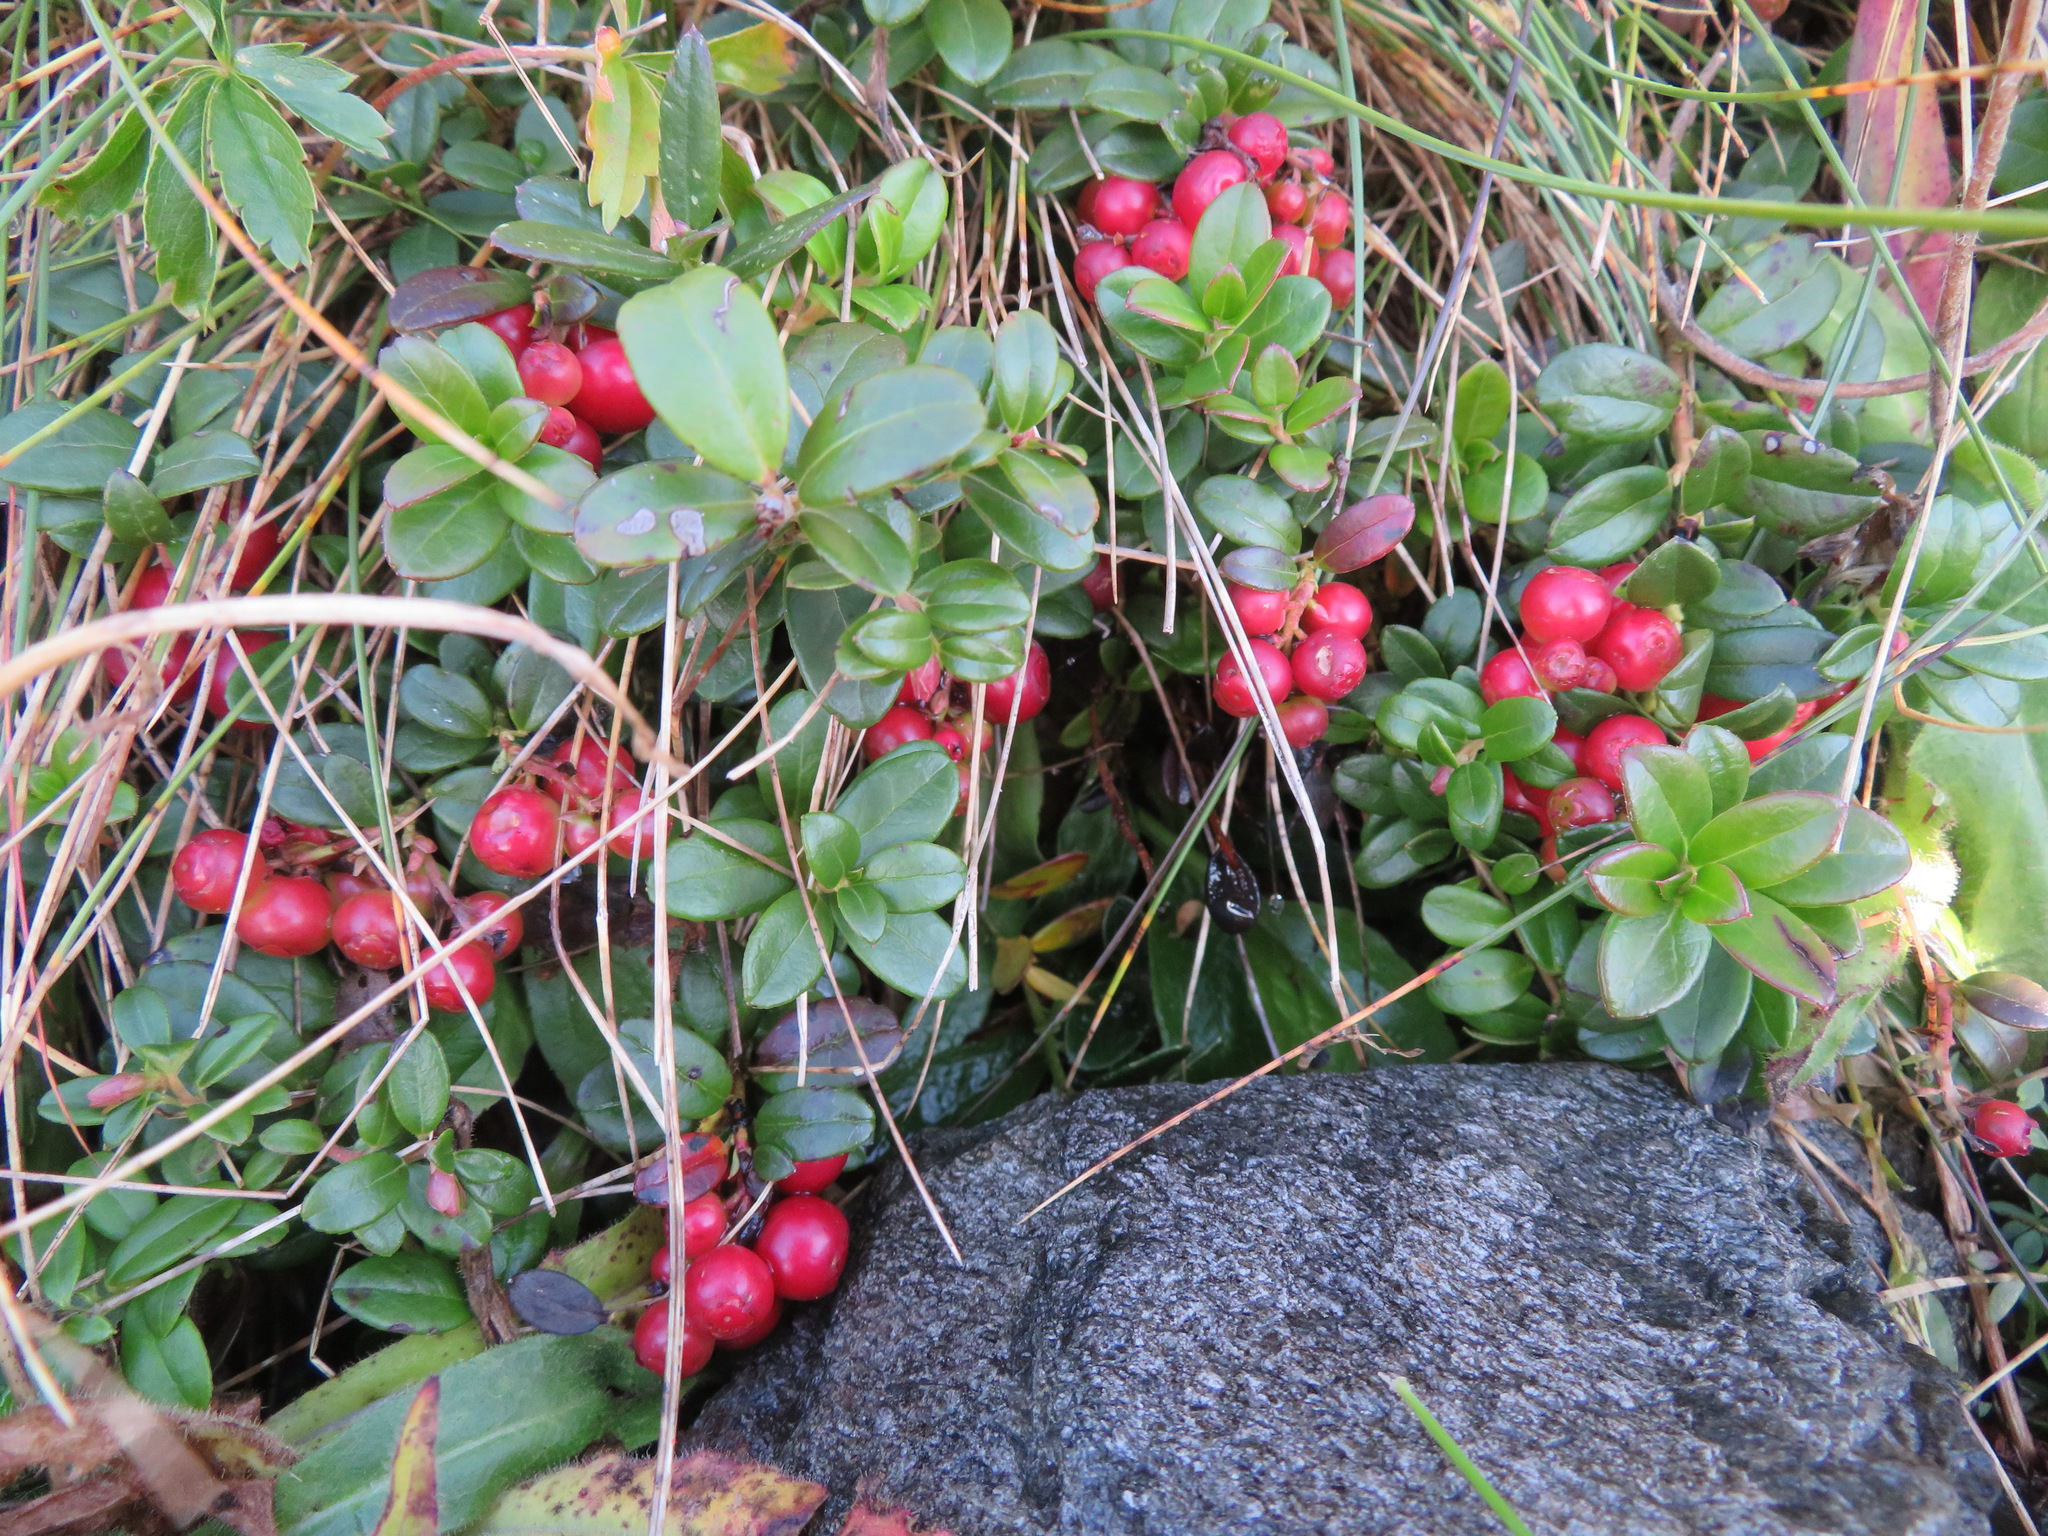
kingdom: Plantae
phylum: Tracheophyta
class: Magnoliopsida
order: Ericales
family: Ericaceae
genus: Vaccinium
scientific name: Vaccinium vitis-idaea
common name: Cowberry
